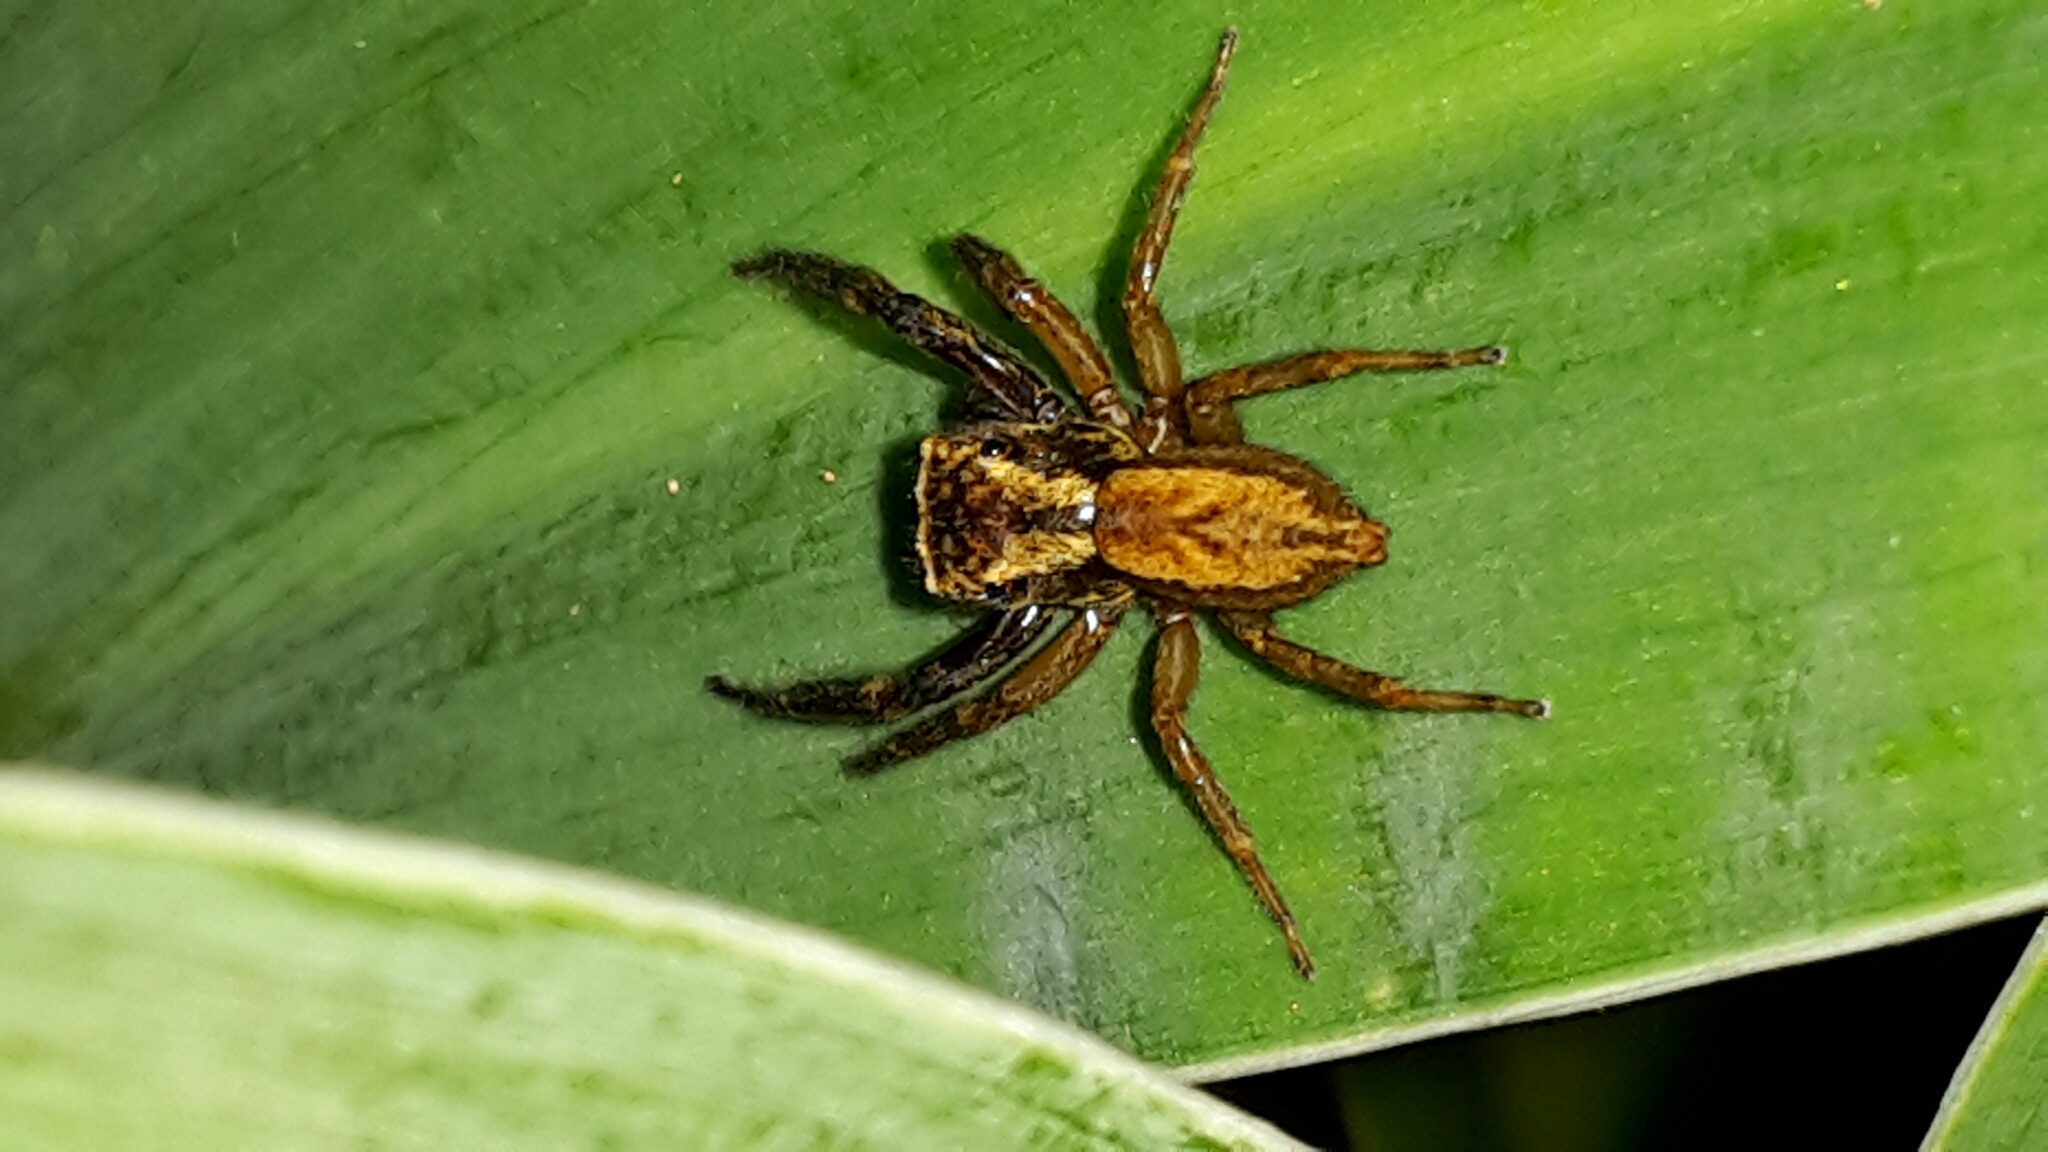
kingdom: Animalia
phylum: Arthropoda
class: Arachnida
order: Araneae
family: Salticidae
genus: Trite
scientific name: Trite auricoma
